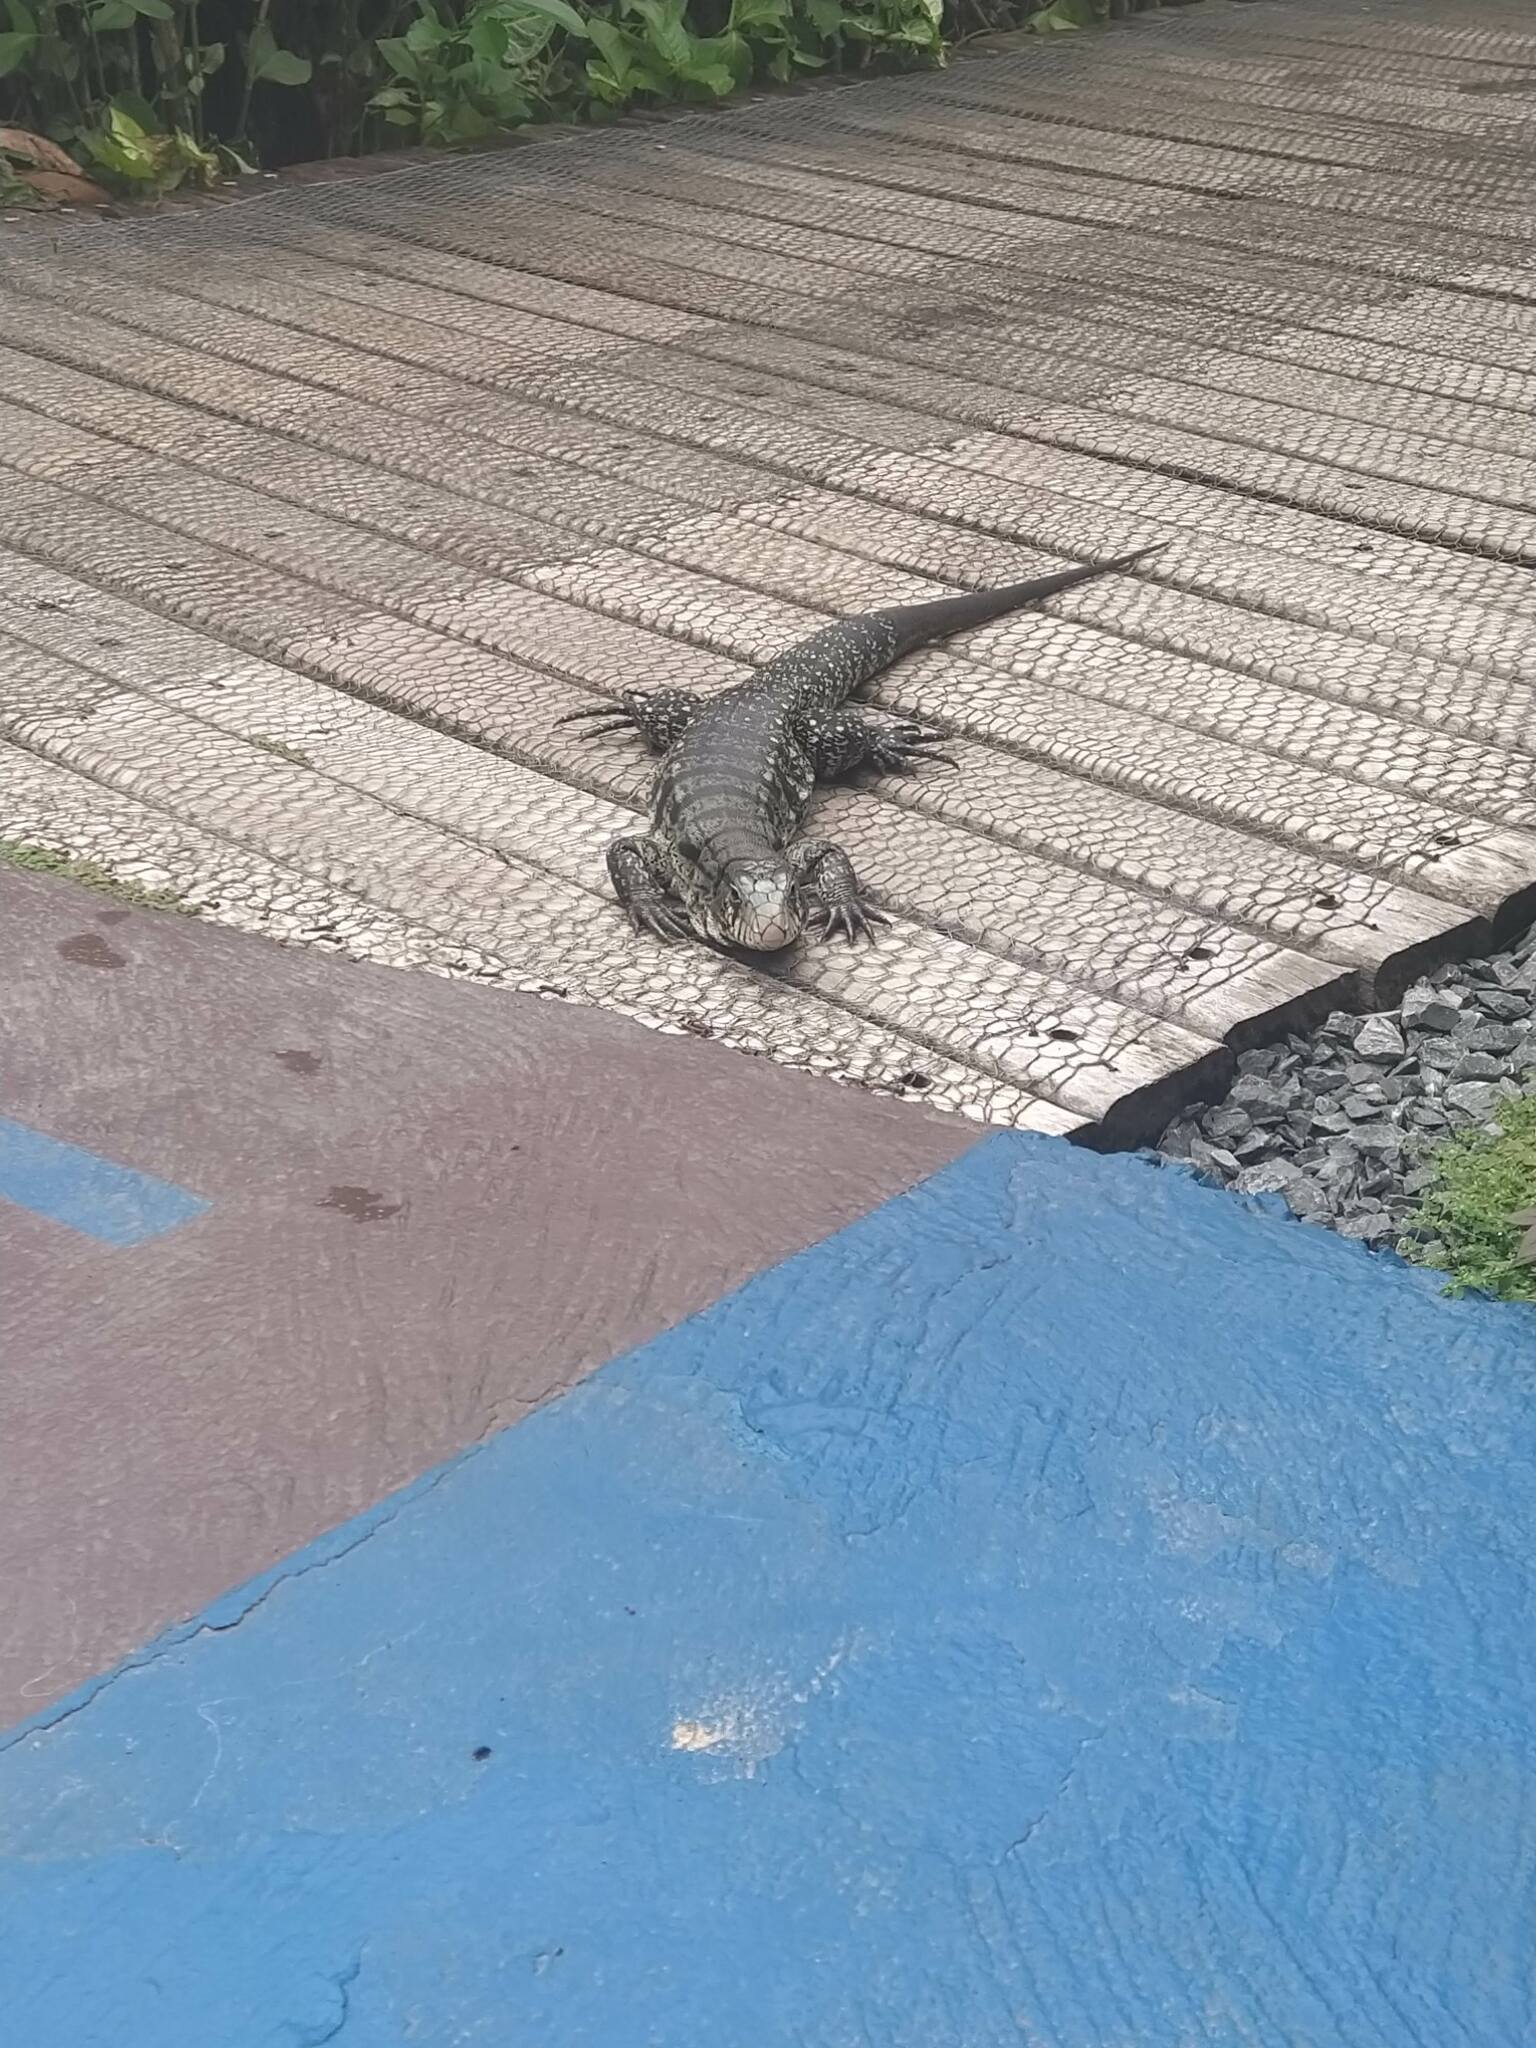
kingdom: Animalia
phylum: Chordata
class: Squamata
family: Teiidae
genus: Salvator
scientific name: Salvator merianae
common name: Argentine black and white tegu
